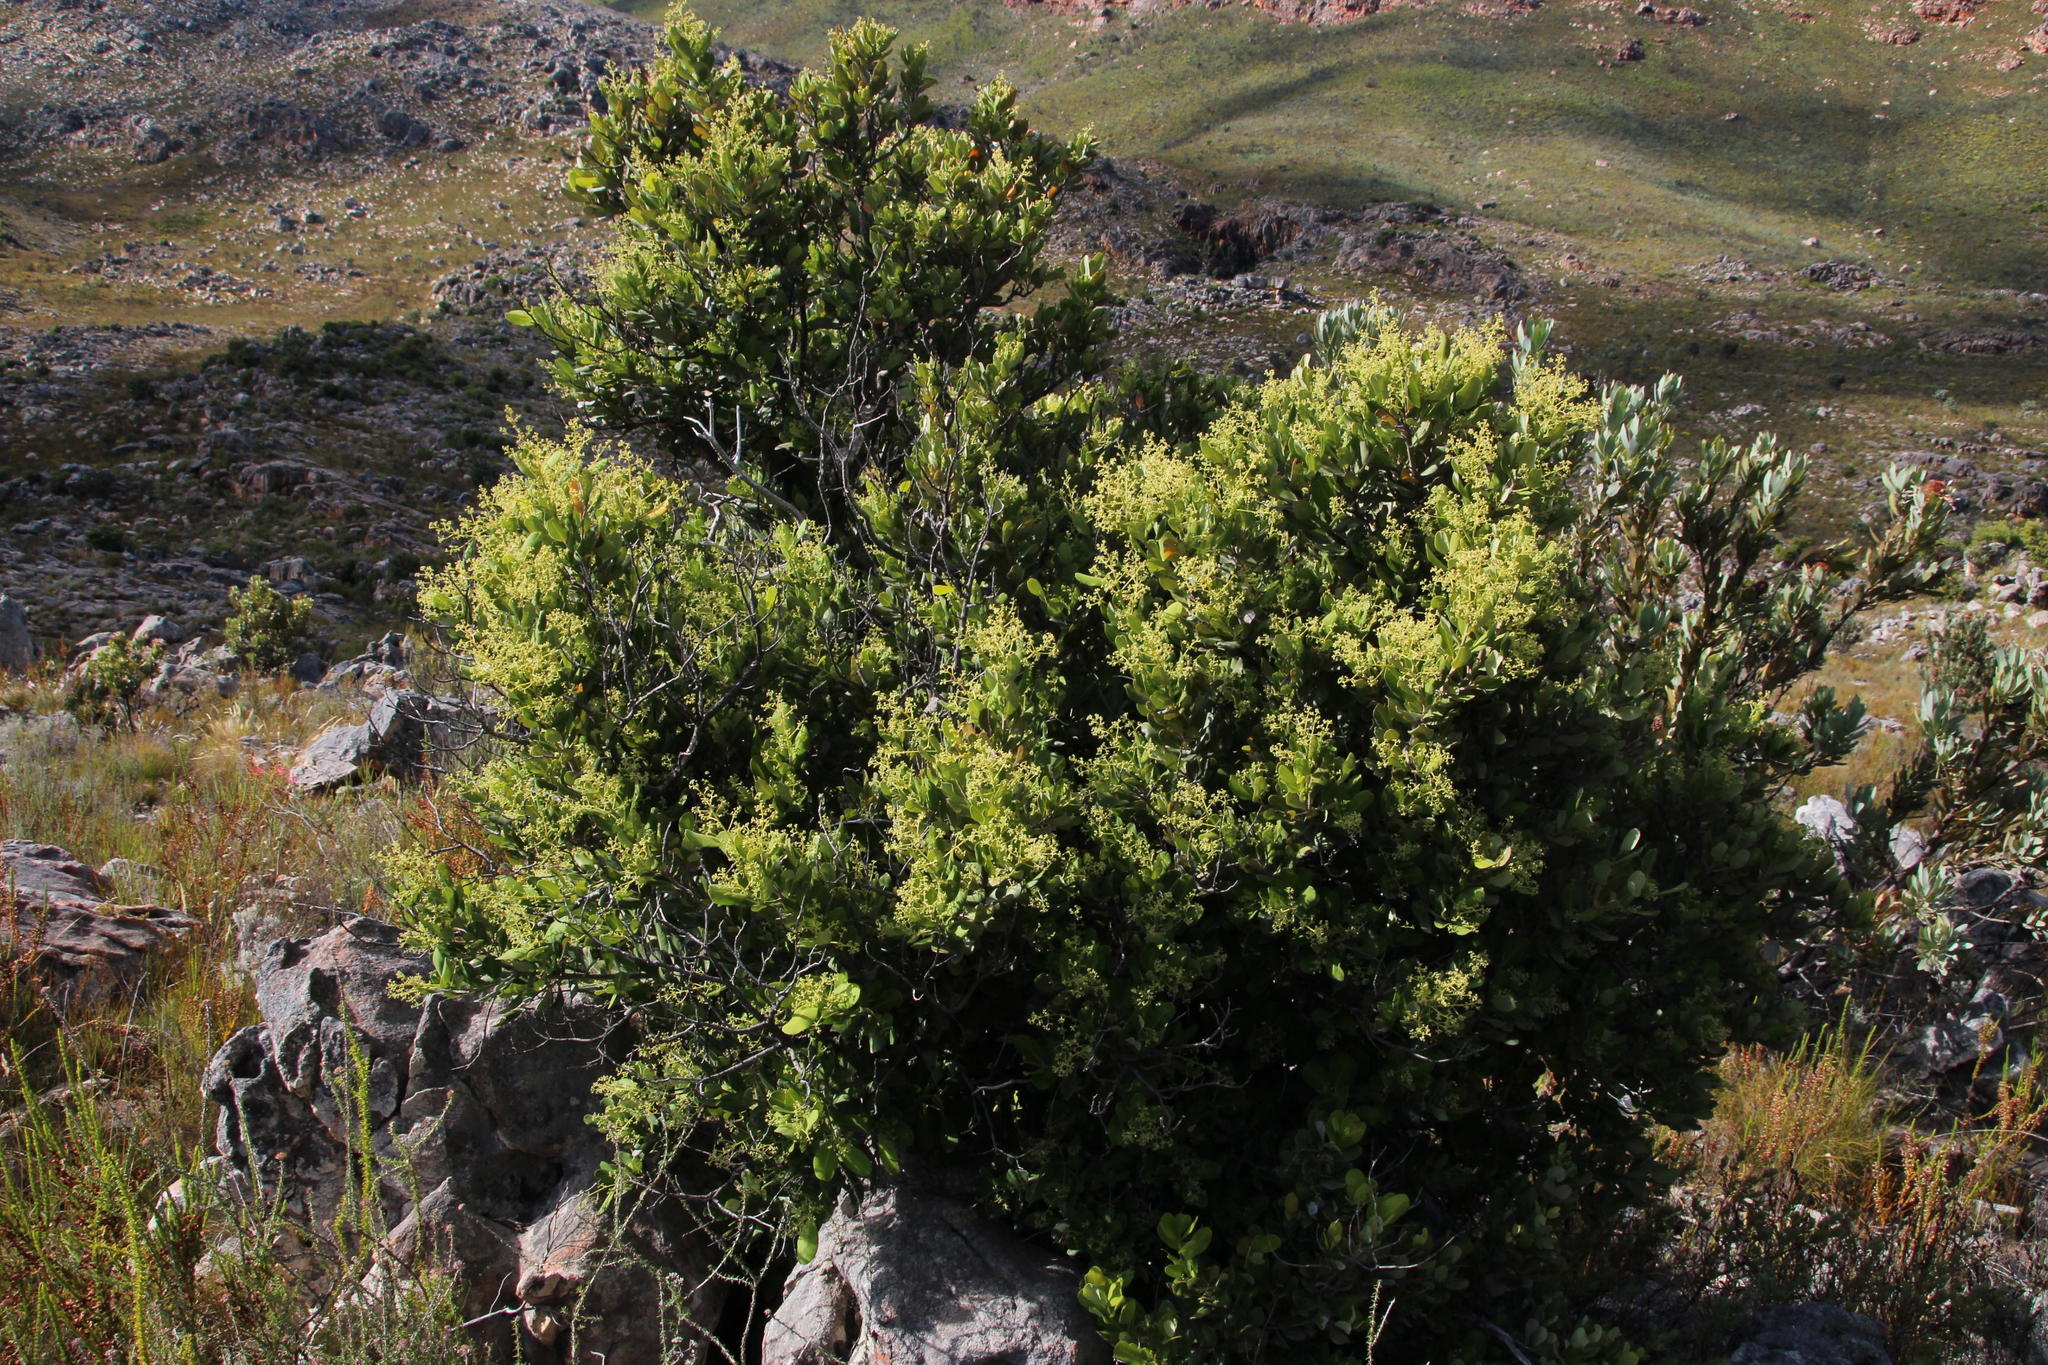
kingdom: Plantae
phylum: Tracheophyta
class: Magnoliopsida
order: Sapindales
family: Anacardiaceae
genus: Heeria
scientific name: Heeria argentea
